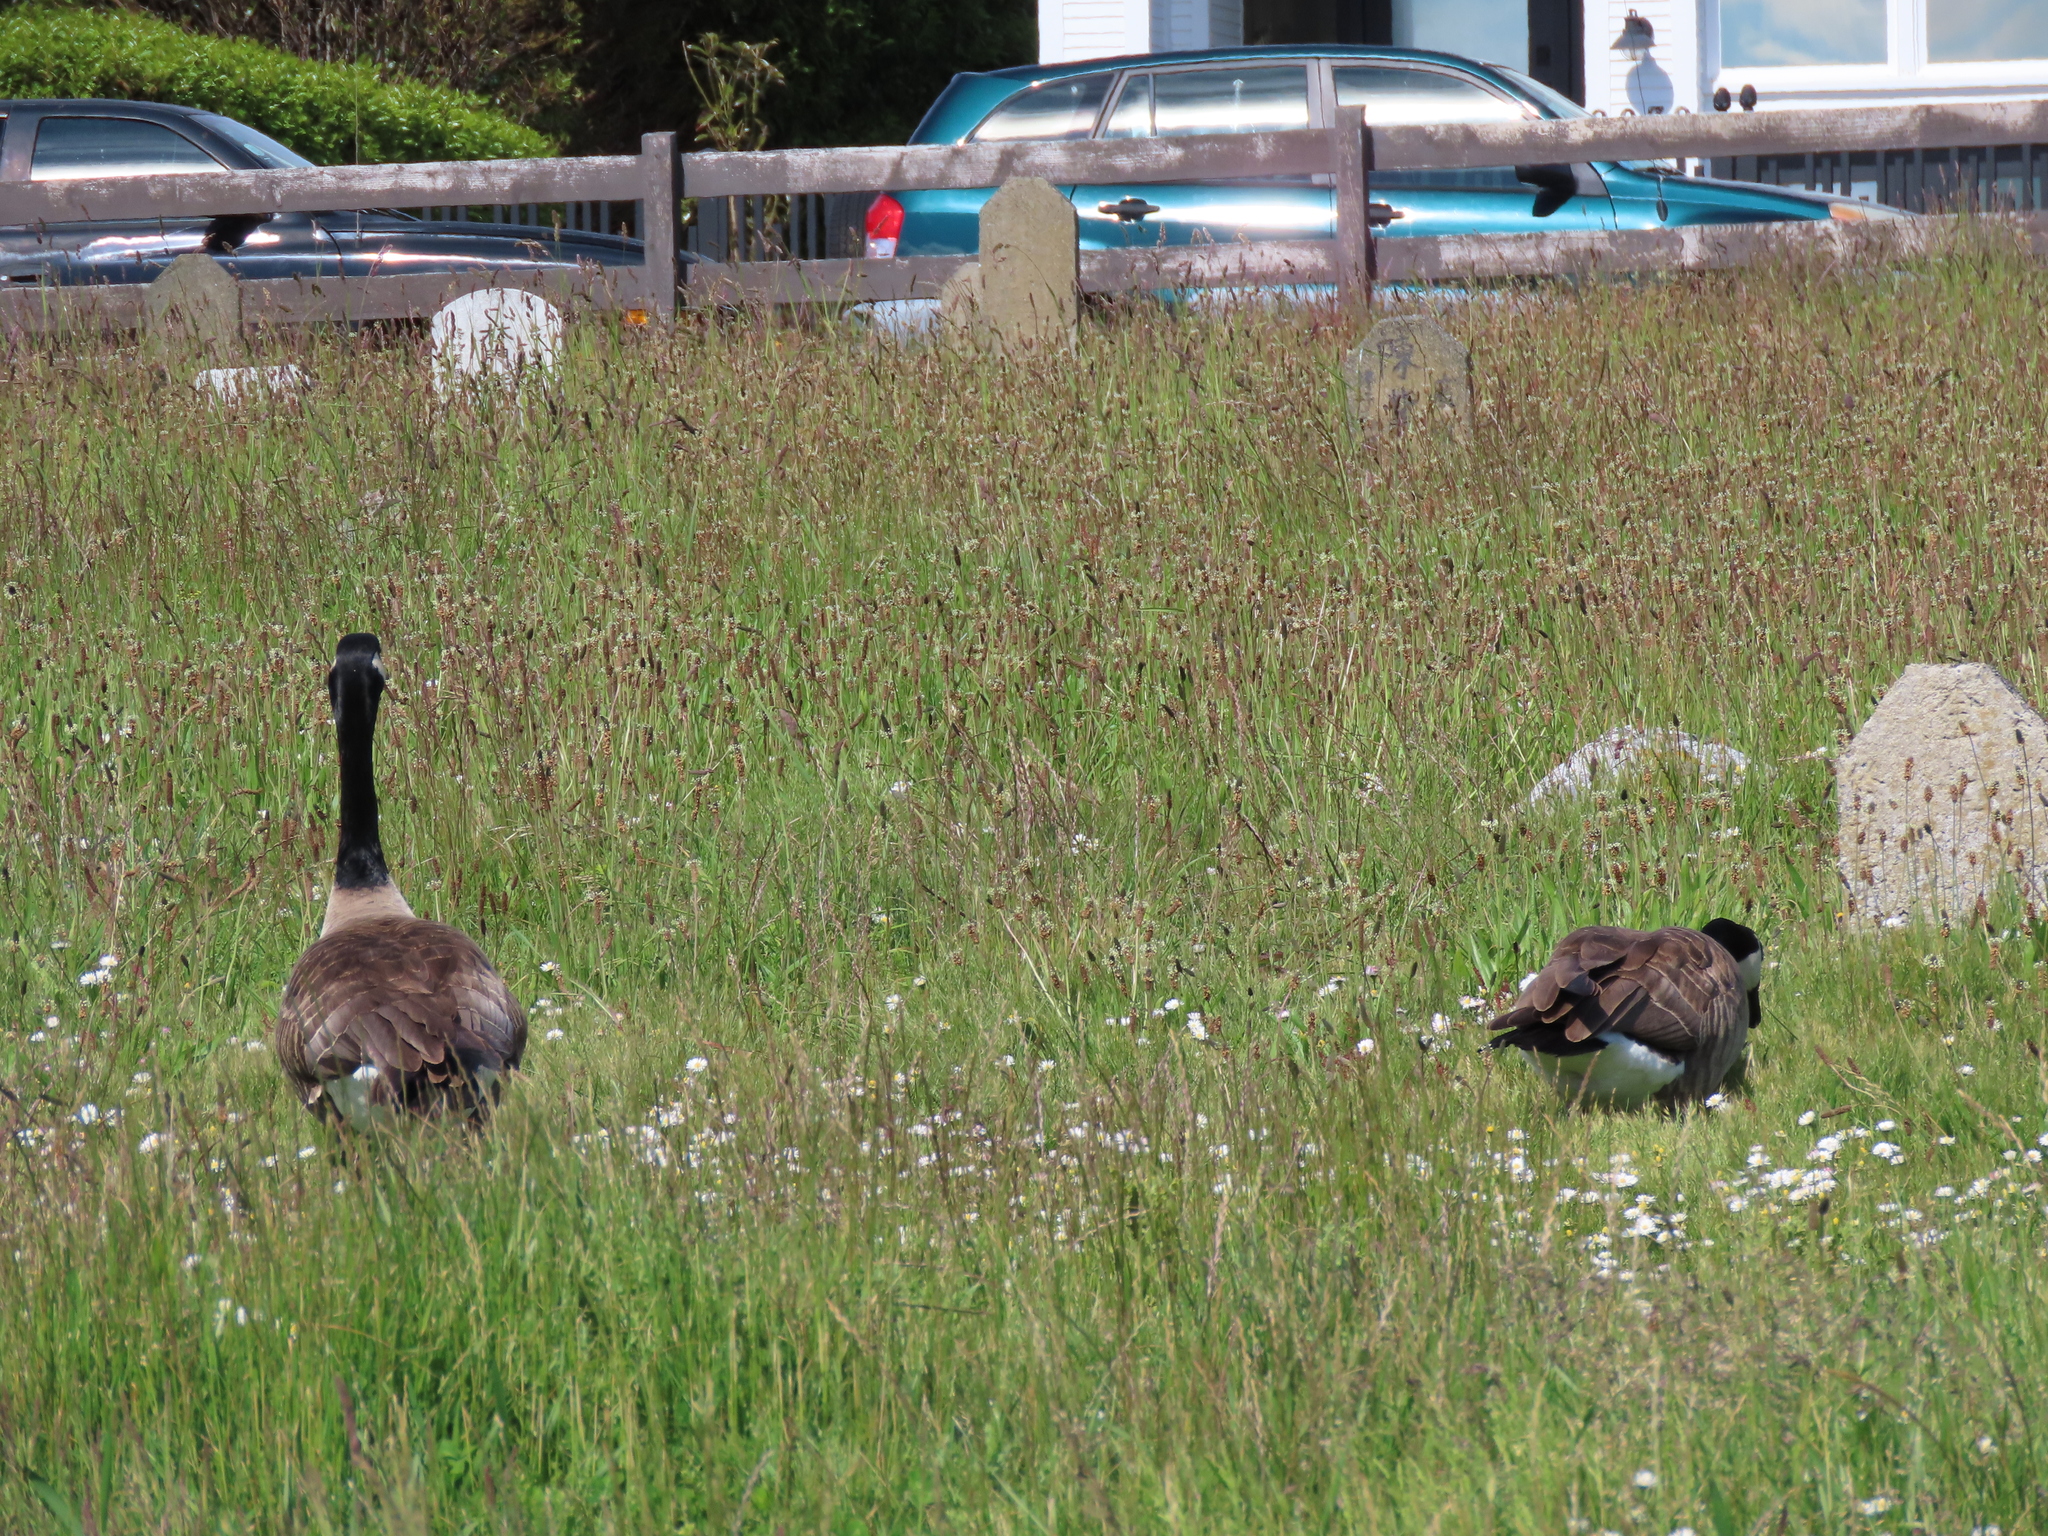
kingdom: Animalia
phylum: Chordata
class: Aves
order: Anseriformes
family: Anatidae
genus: Branta
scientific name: Branta canadensis
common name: Canada goose
